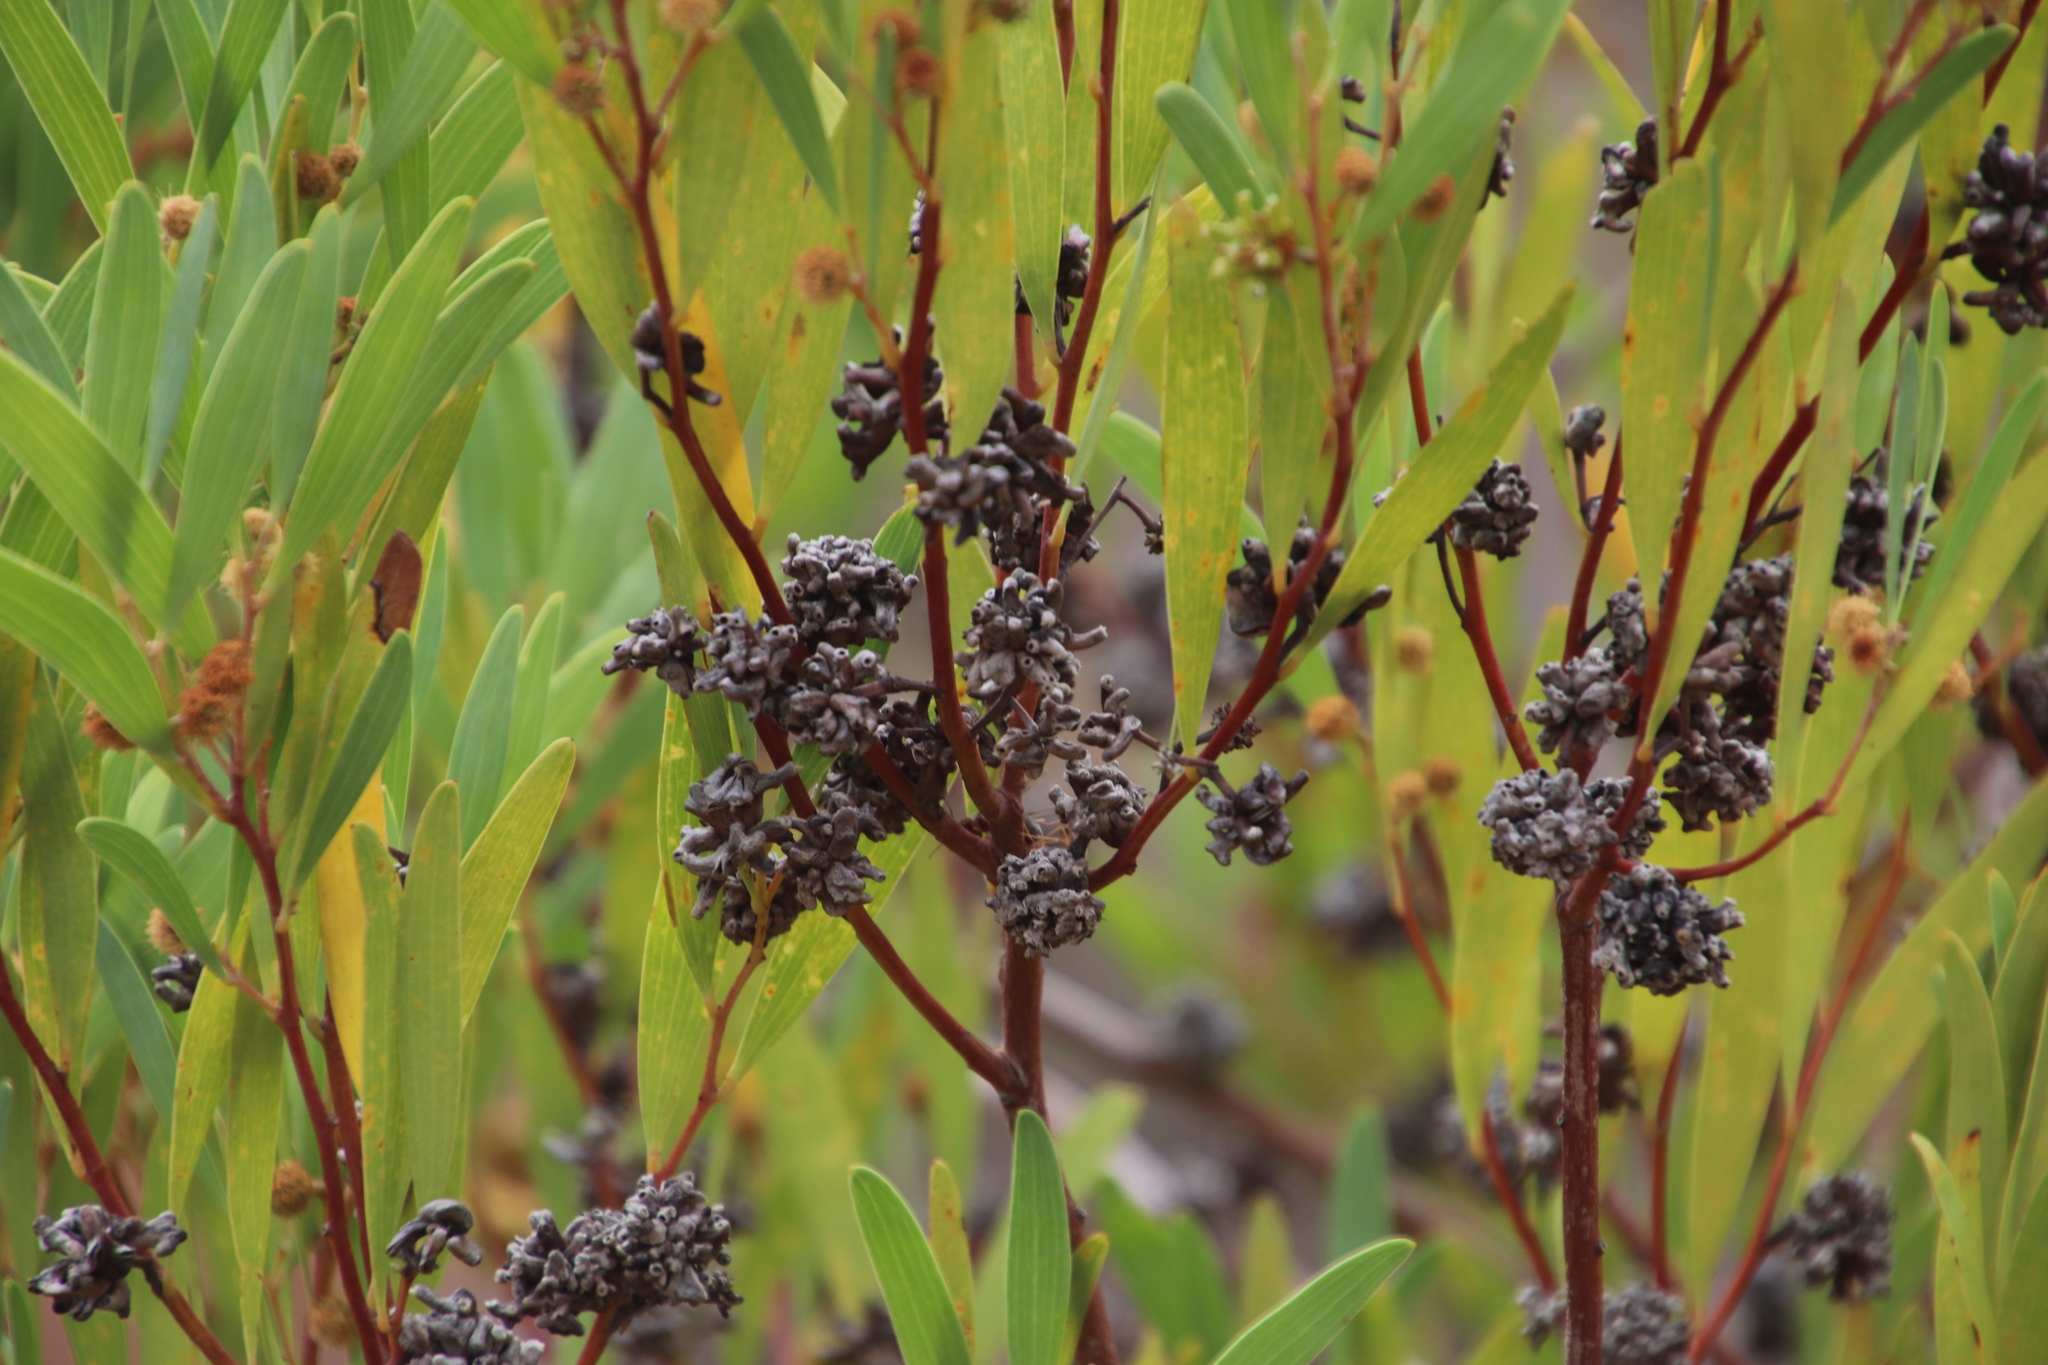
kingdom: Plantae
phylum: Tracheophyta
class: Magnoliopsida
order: Fabales
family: Fabaceae
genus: Acacia
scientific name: Acacia cyclops
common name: Coastal wattle
